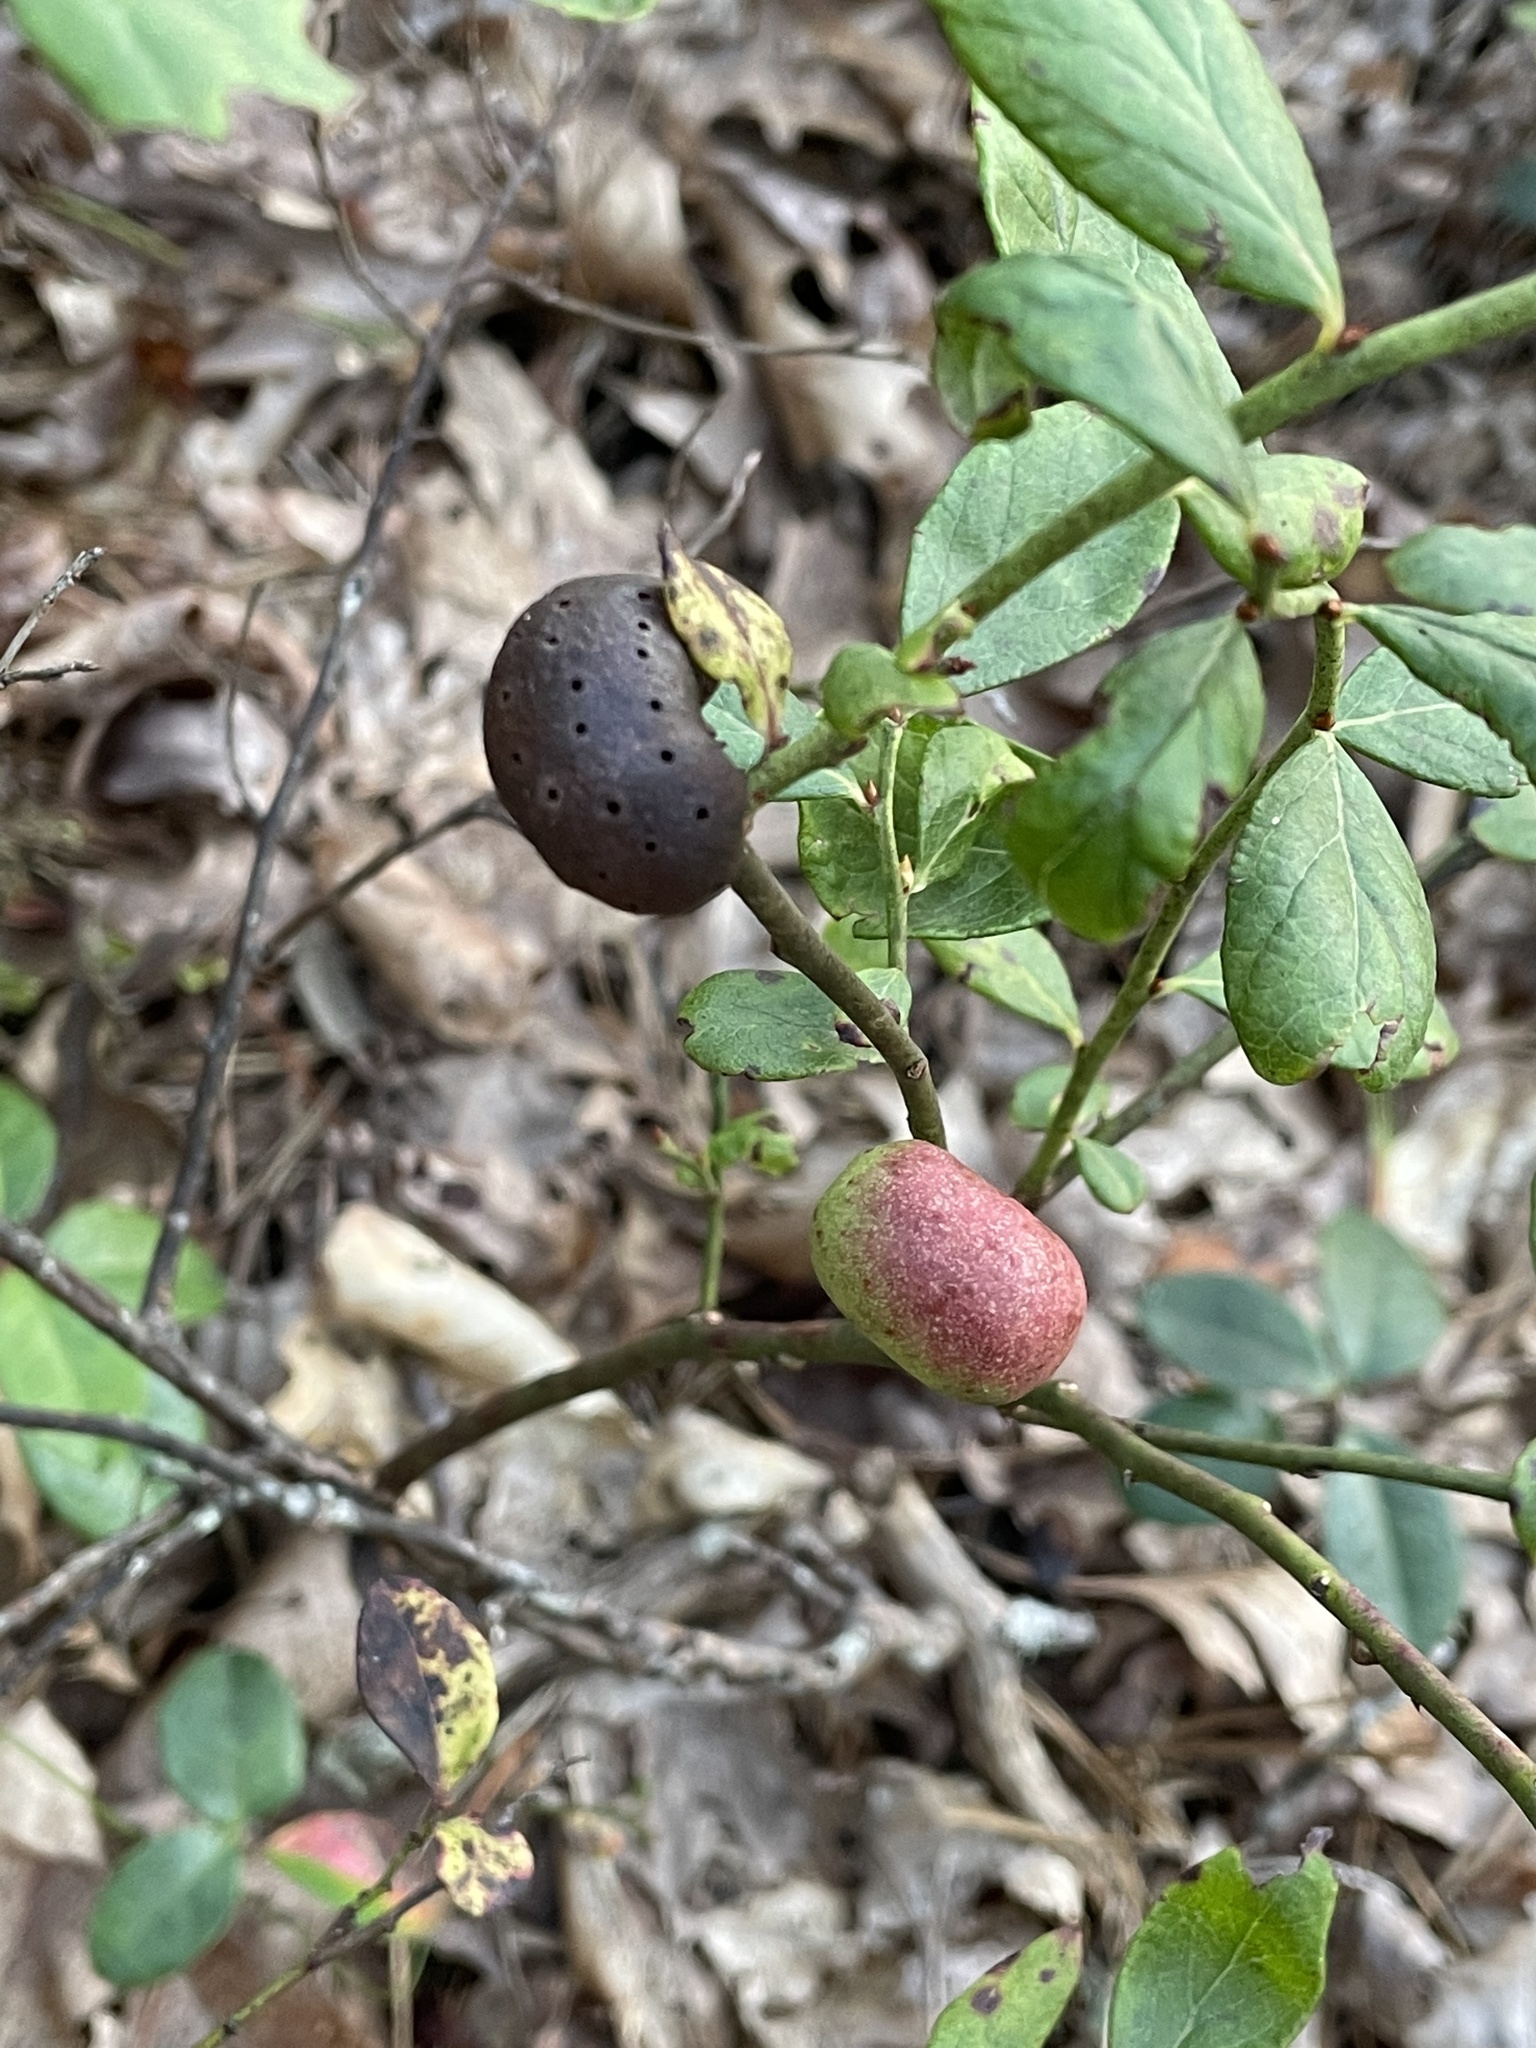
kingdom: Animalia
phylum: Arthropoda
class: Insecta
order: Hymenoptera
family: Pteromalidae
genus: Hemadas
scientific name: Hemadas nubilipennis
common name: Blueberry stem gall wasp
